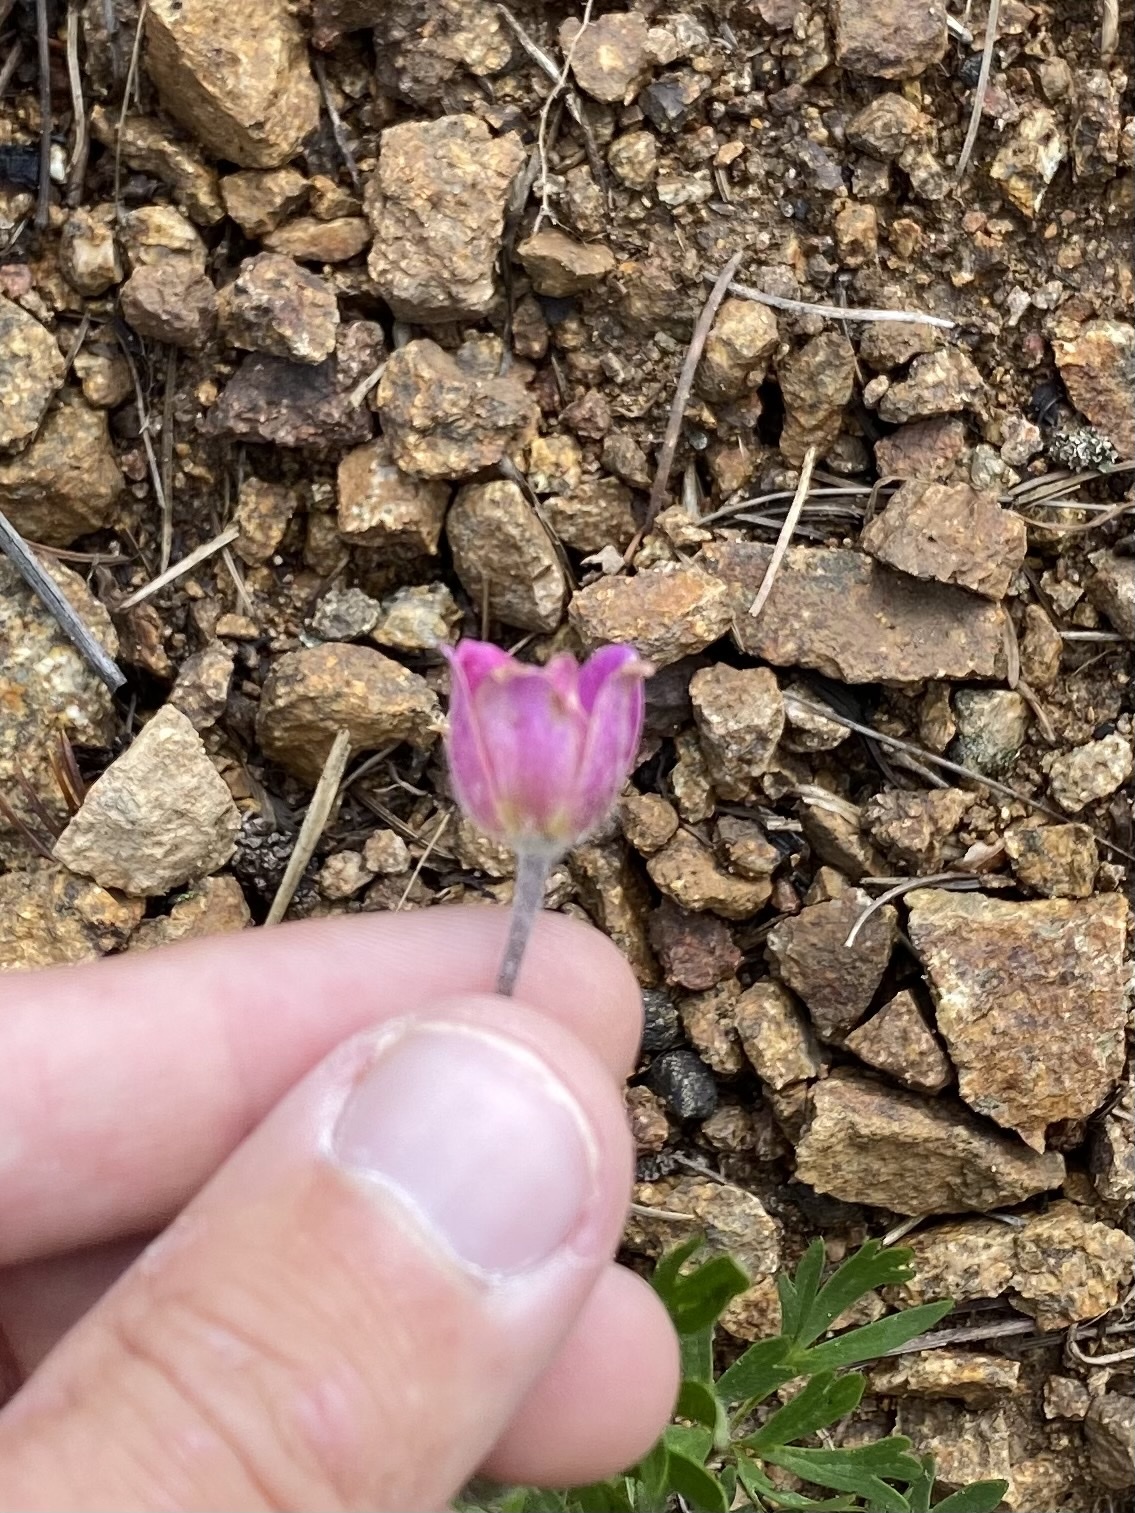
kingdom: Plantae
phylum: Tracheophyta
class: Magnoliopsida
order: Ranunculales
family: Ranunculaceae
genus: Anemone
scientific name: Anemone multifida
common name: Bird's-foot anemone
